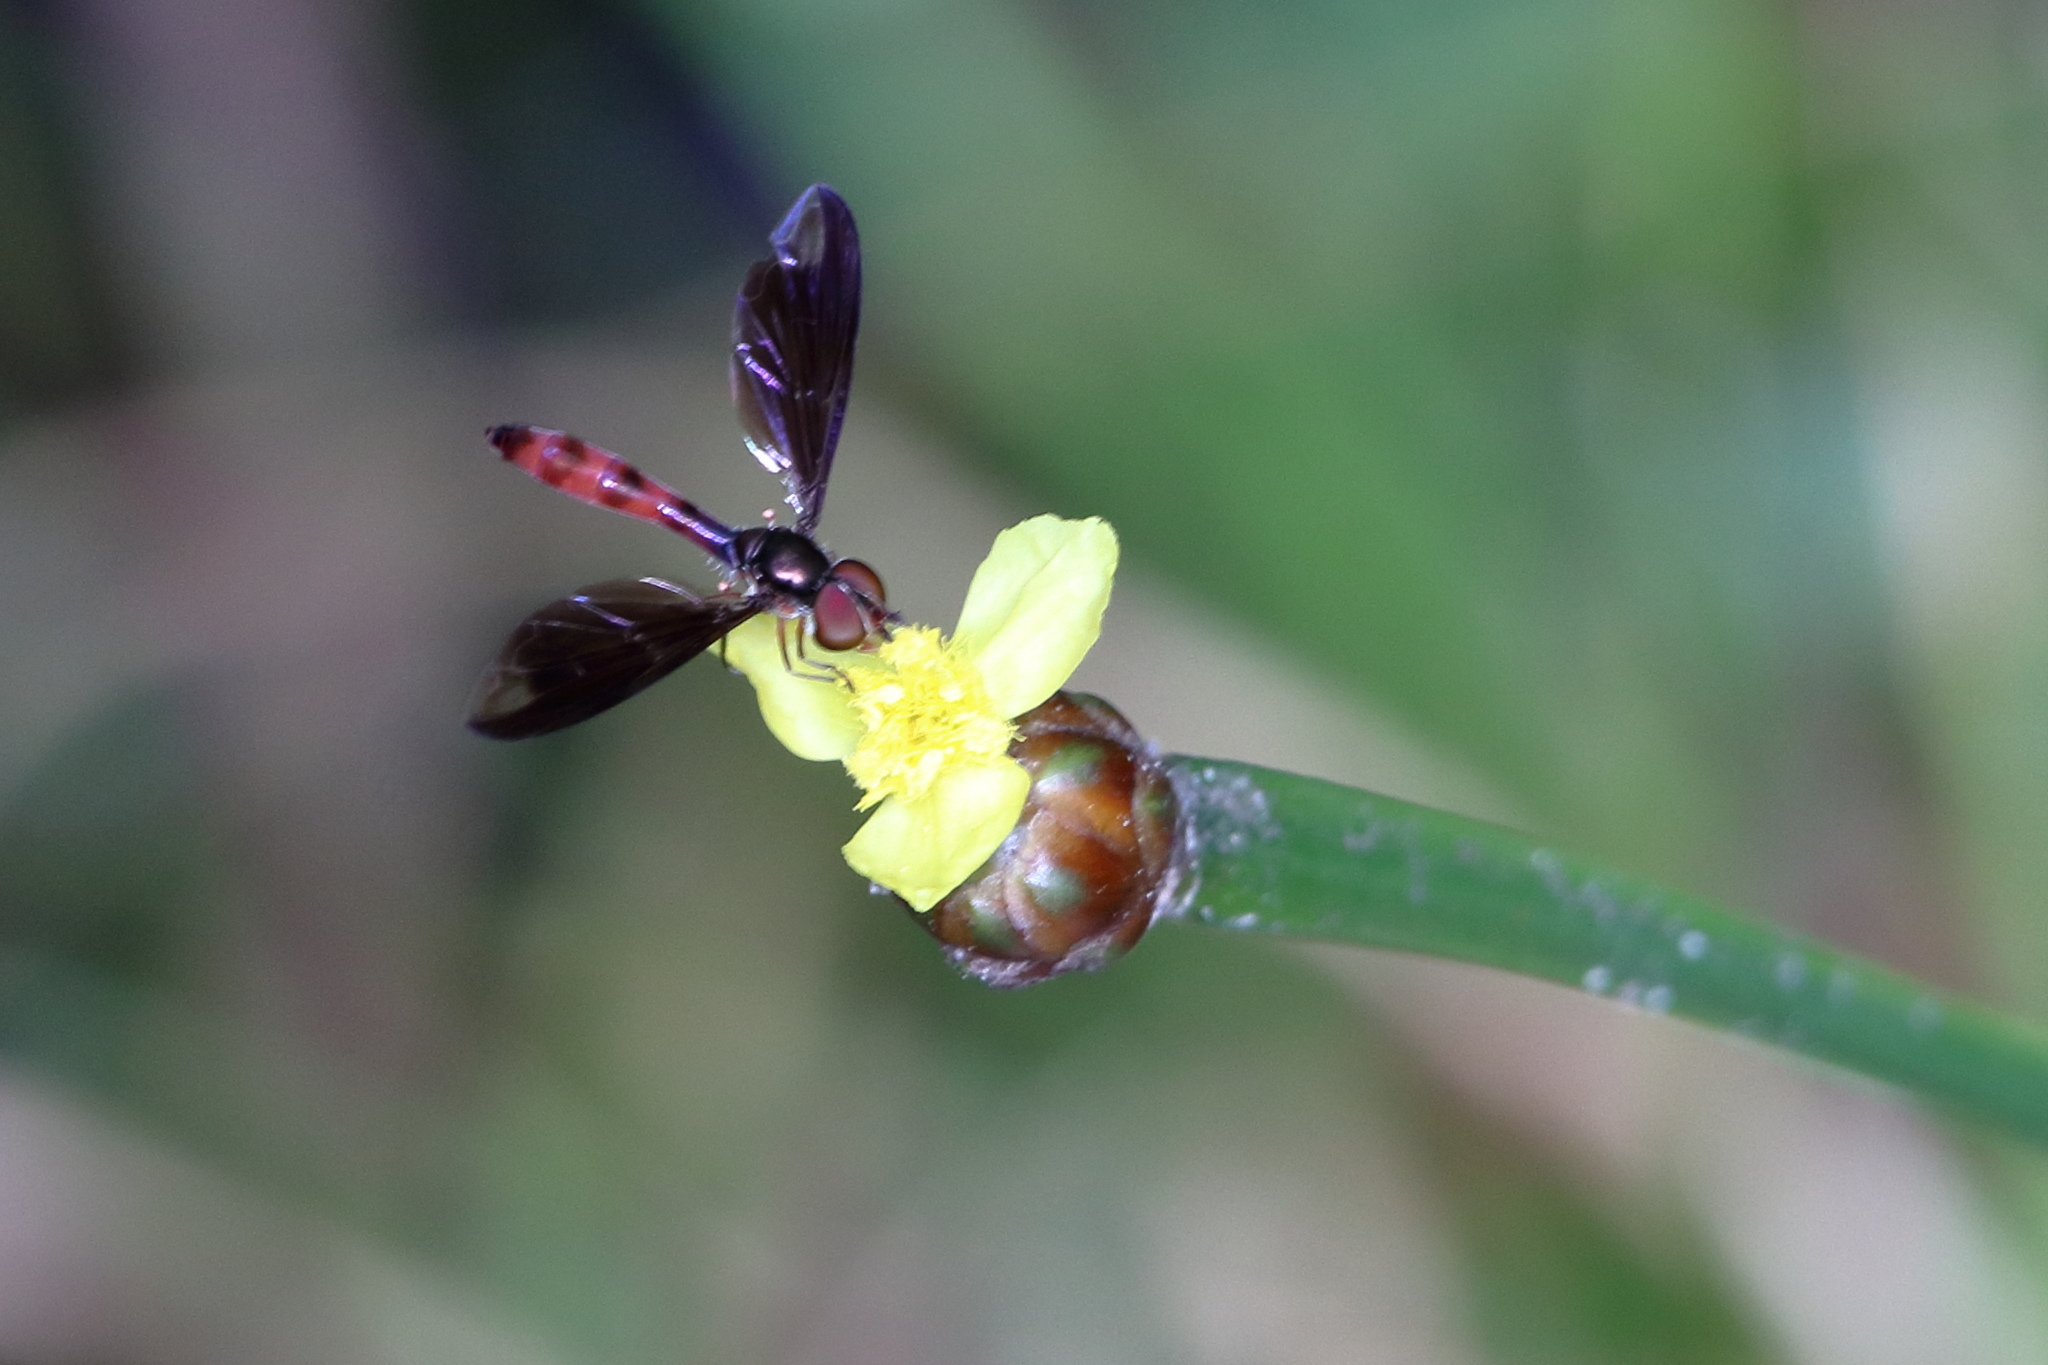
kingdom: Animalia
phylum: Arthropoda
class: Insecta
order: Diptera
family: Syrphidae
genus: Ocyptamus
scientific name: Ocyptamus fuscipennis
